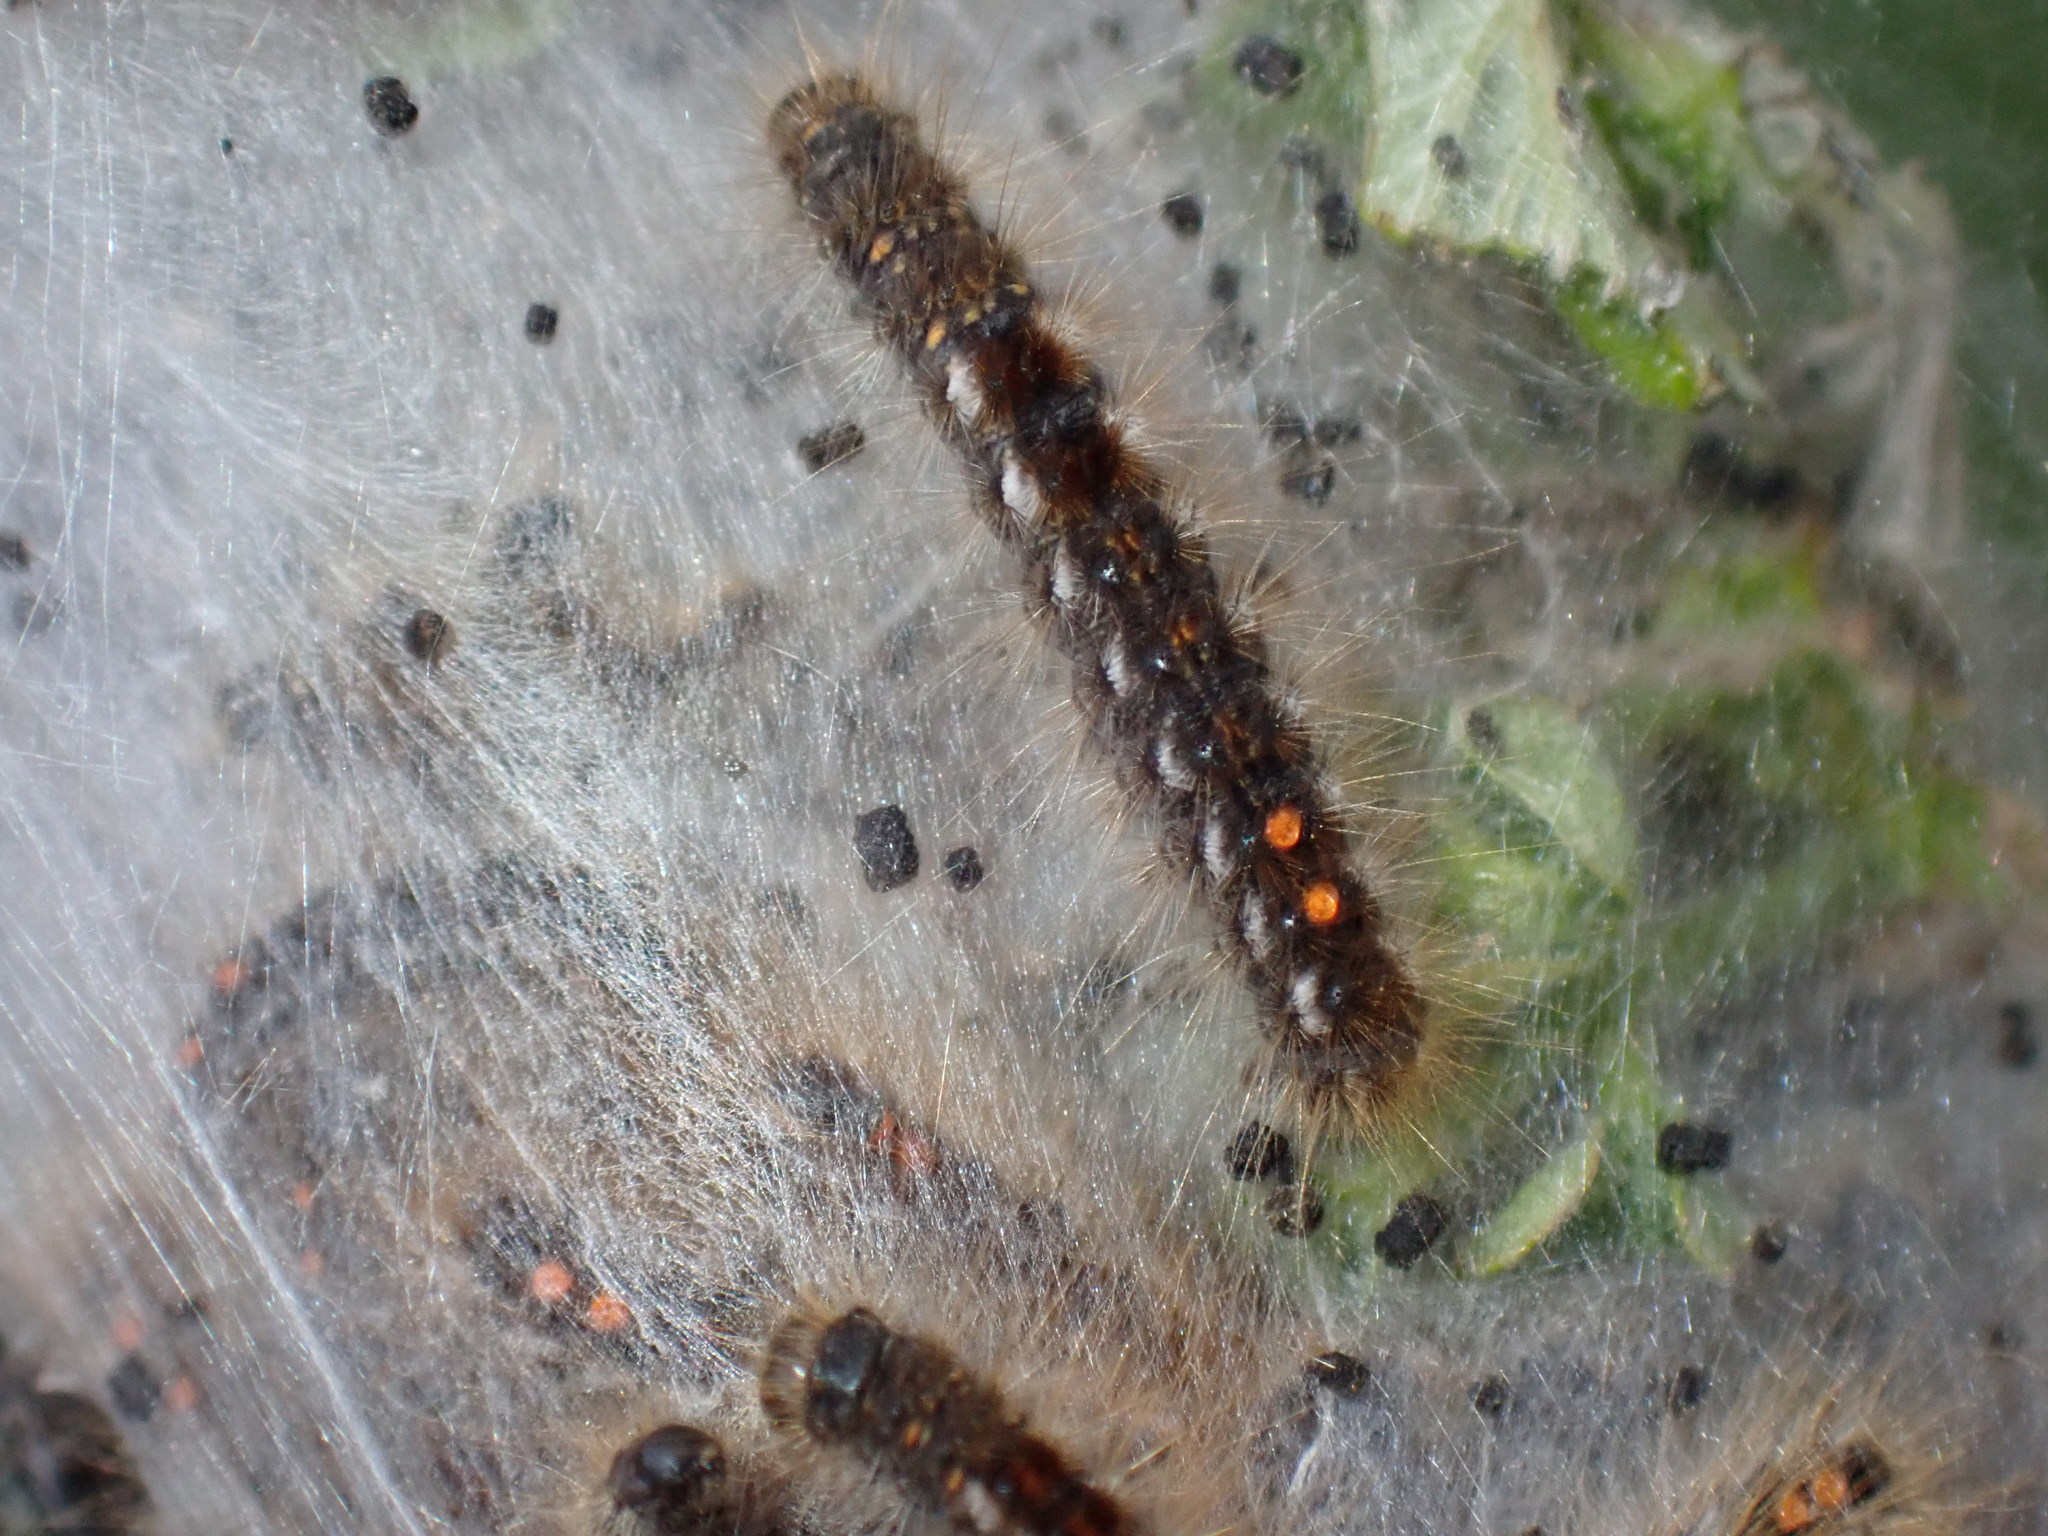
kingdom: Animalia
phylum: Arthropoda
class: Insecta
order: Lepidoptera
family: Erebidae
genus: Euproctis
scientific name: Euproctis chrysorrhoea
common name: Brown-tail
